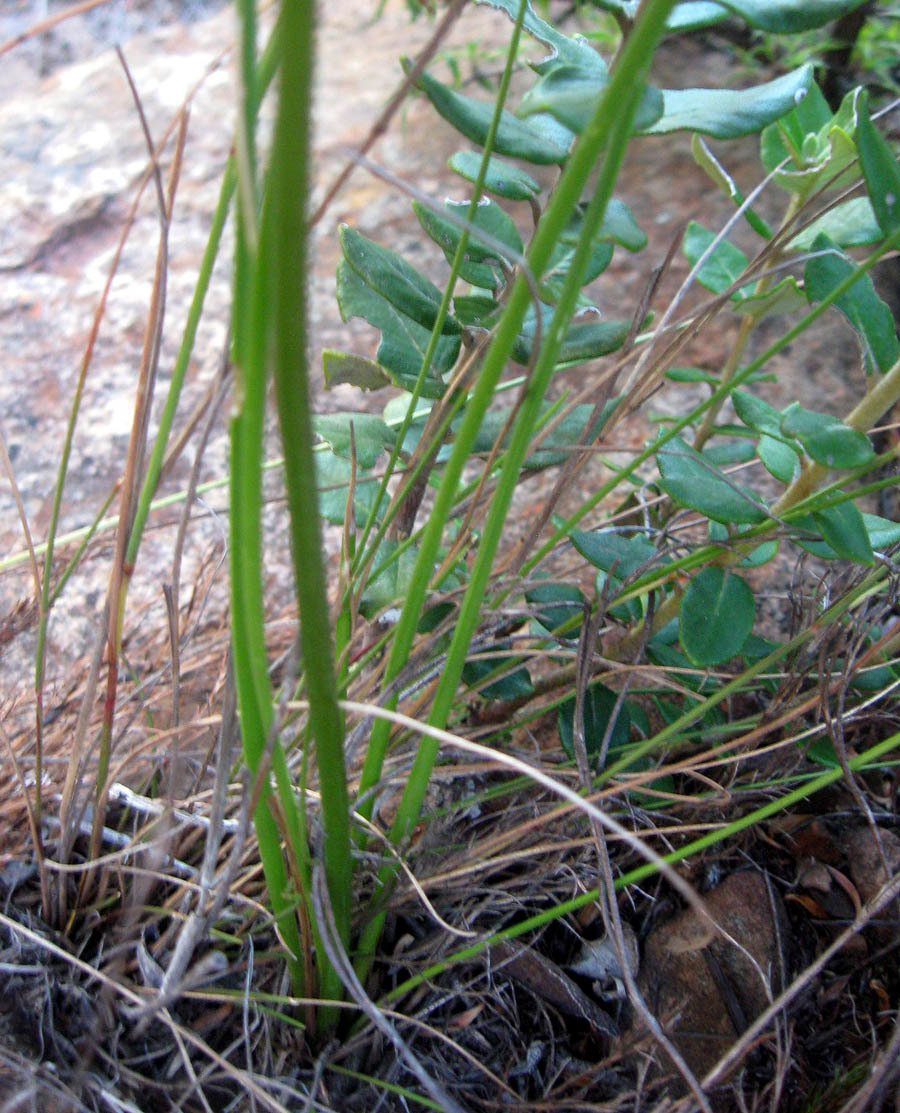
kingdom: Plantae
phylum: Tracheophyta
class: Liliopsida
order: Asparagales
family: Asparagaceae
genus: Drimia
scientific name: Drimia media
